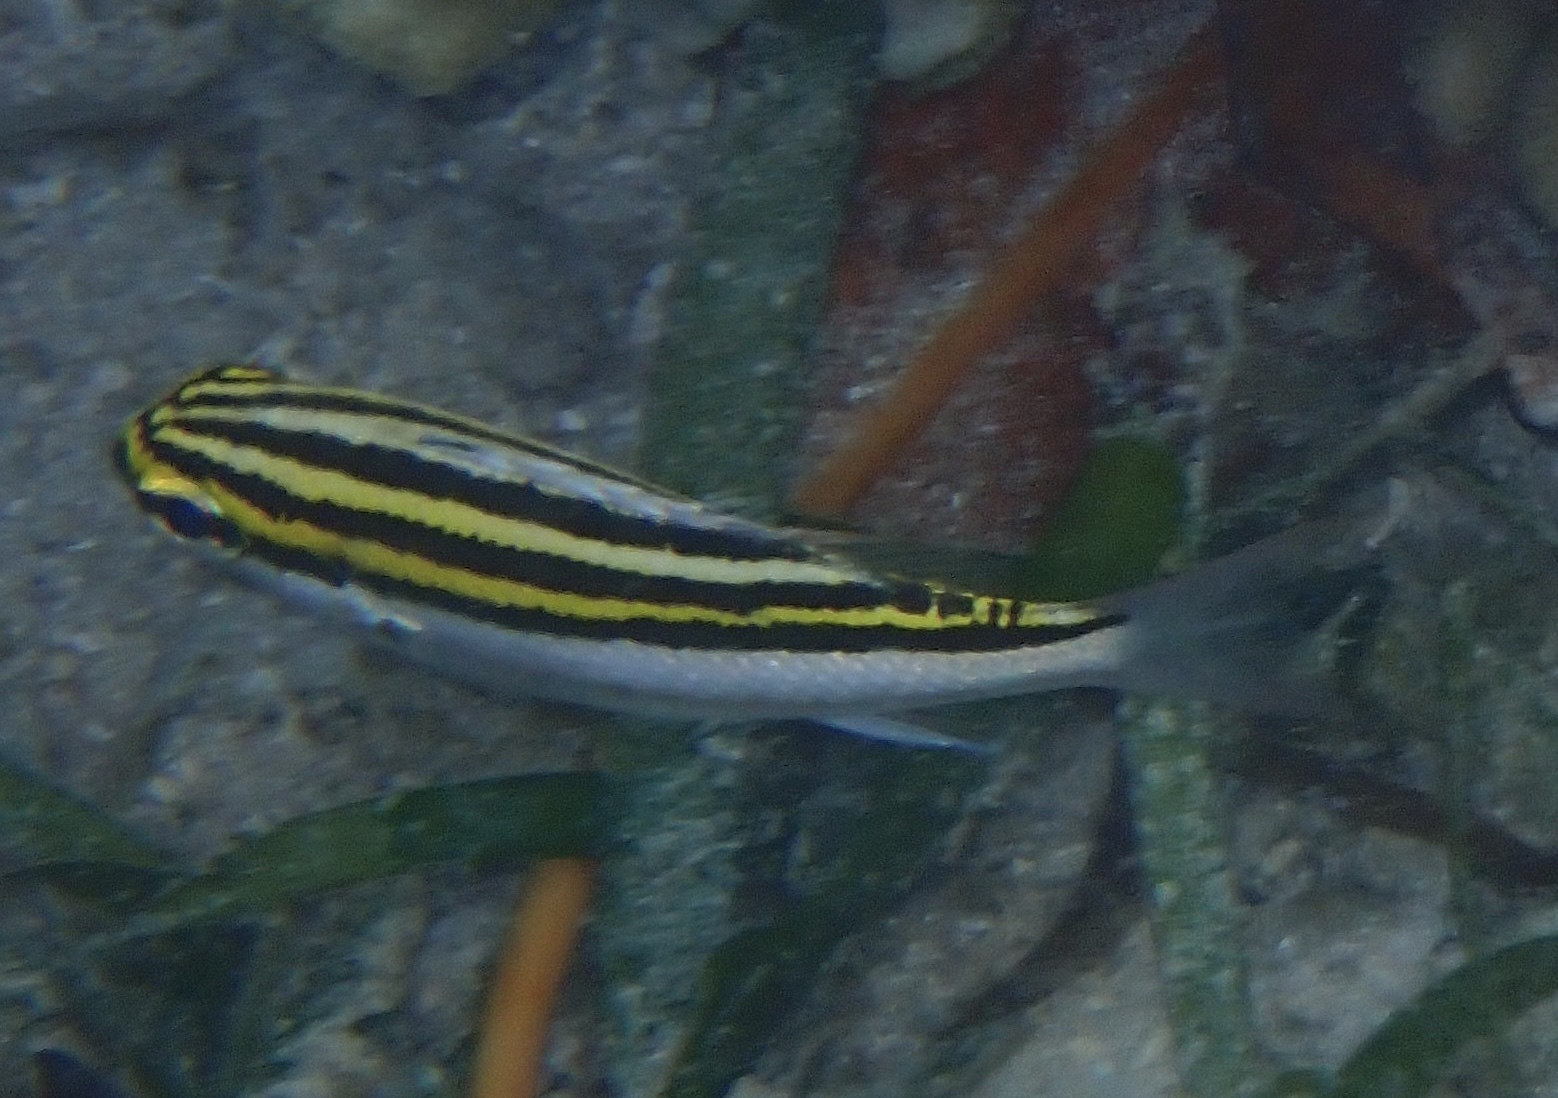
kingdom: Animalia
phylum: Chordata
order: Perciformes
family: Nemipteridae
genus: Scolopsis
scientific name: Scolopsis bilineata
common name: Two-lined monocle bream
